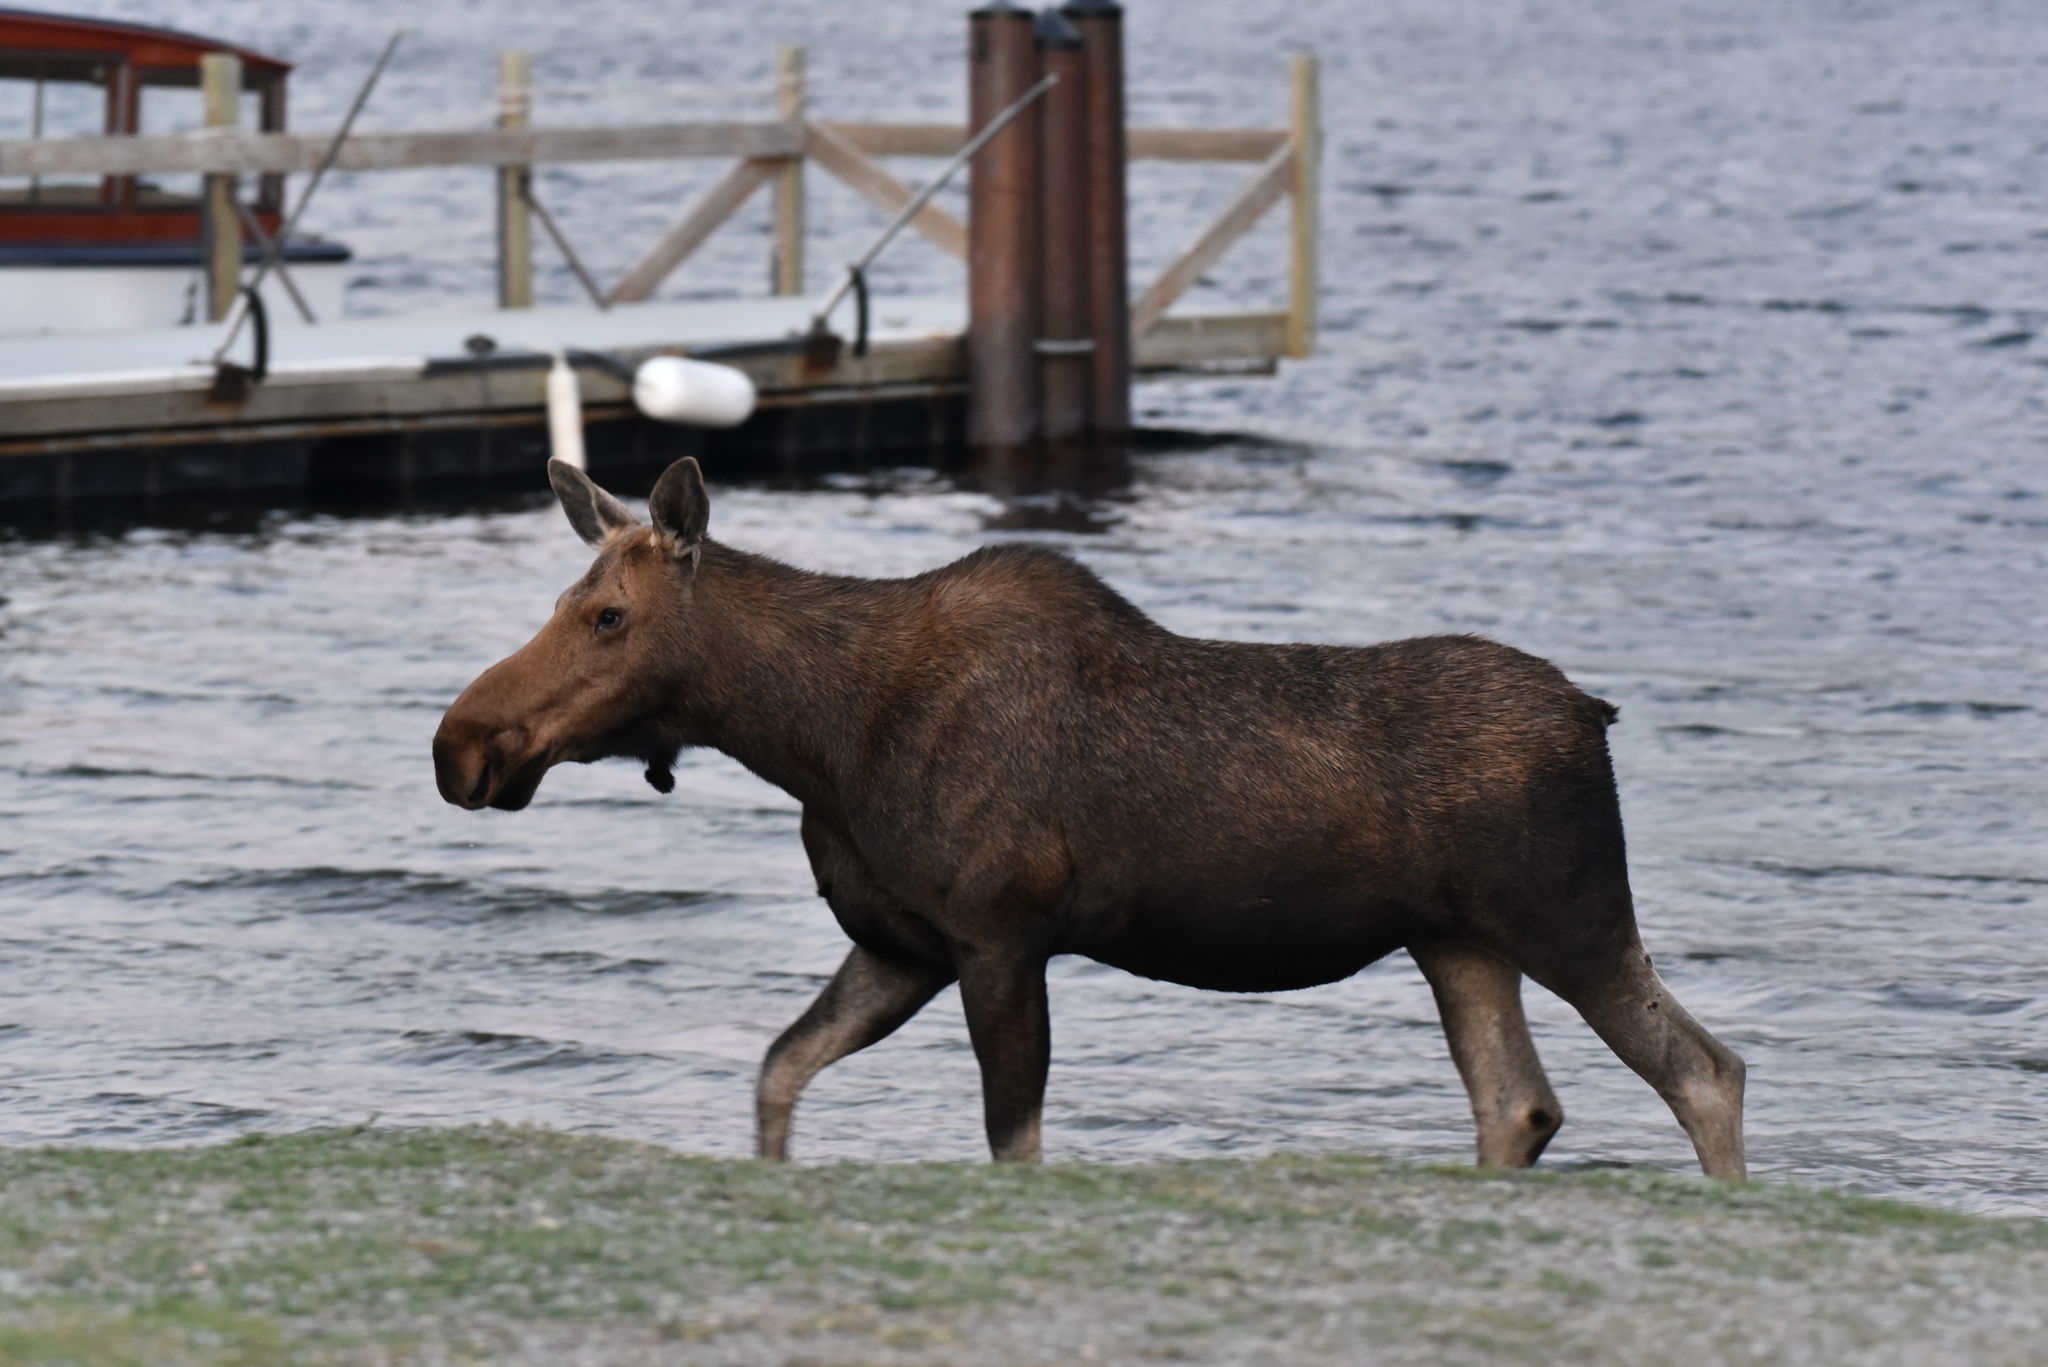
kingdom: Animalia
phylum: Chordata
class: Mammalia
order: Artiodactyla
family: Cervidae
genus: Alces
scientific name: Alces americanus
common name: Moose
